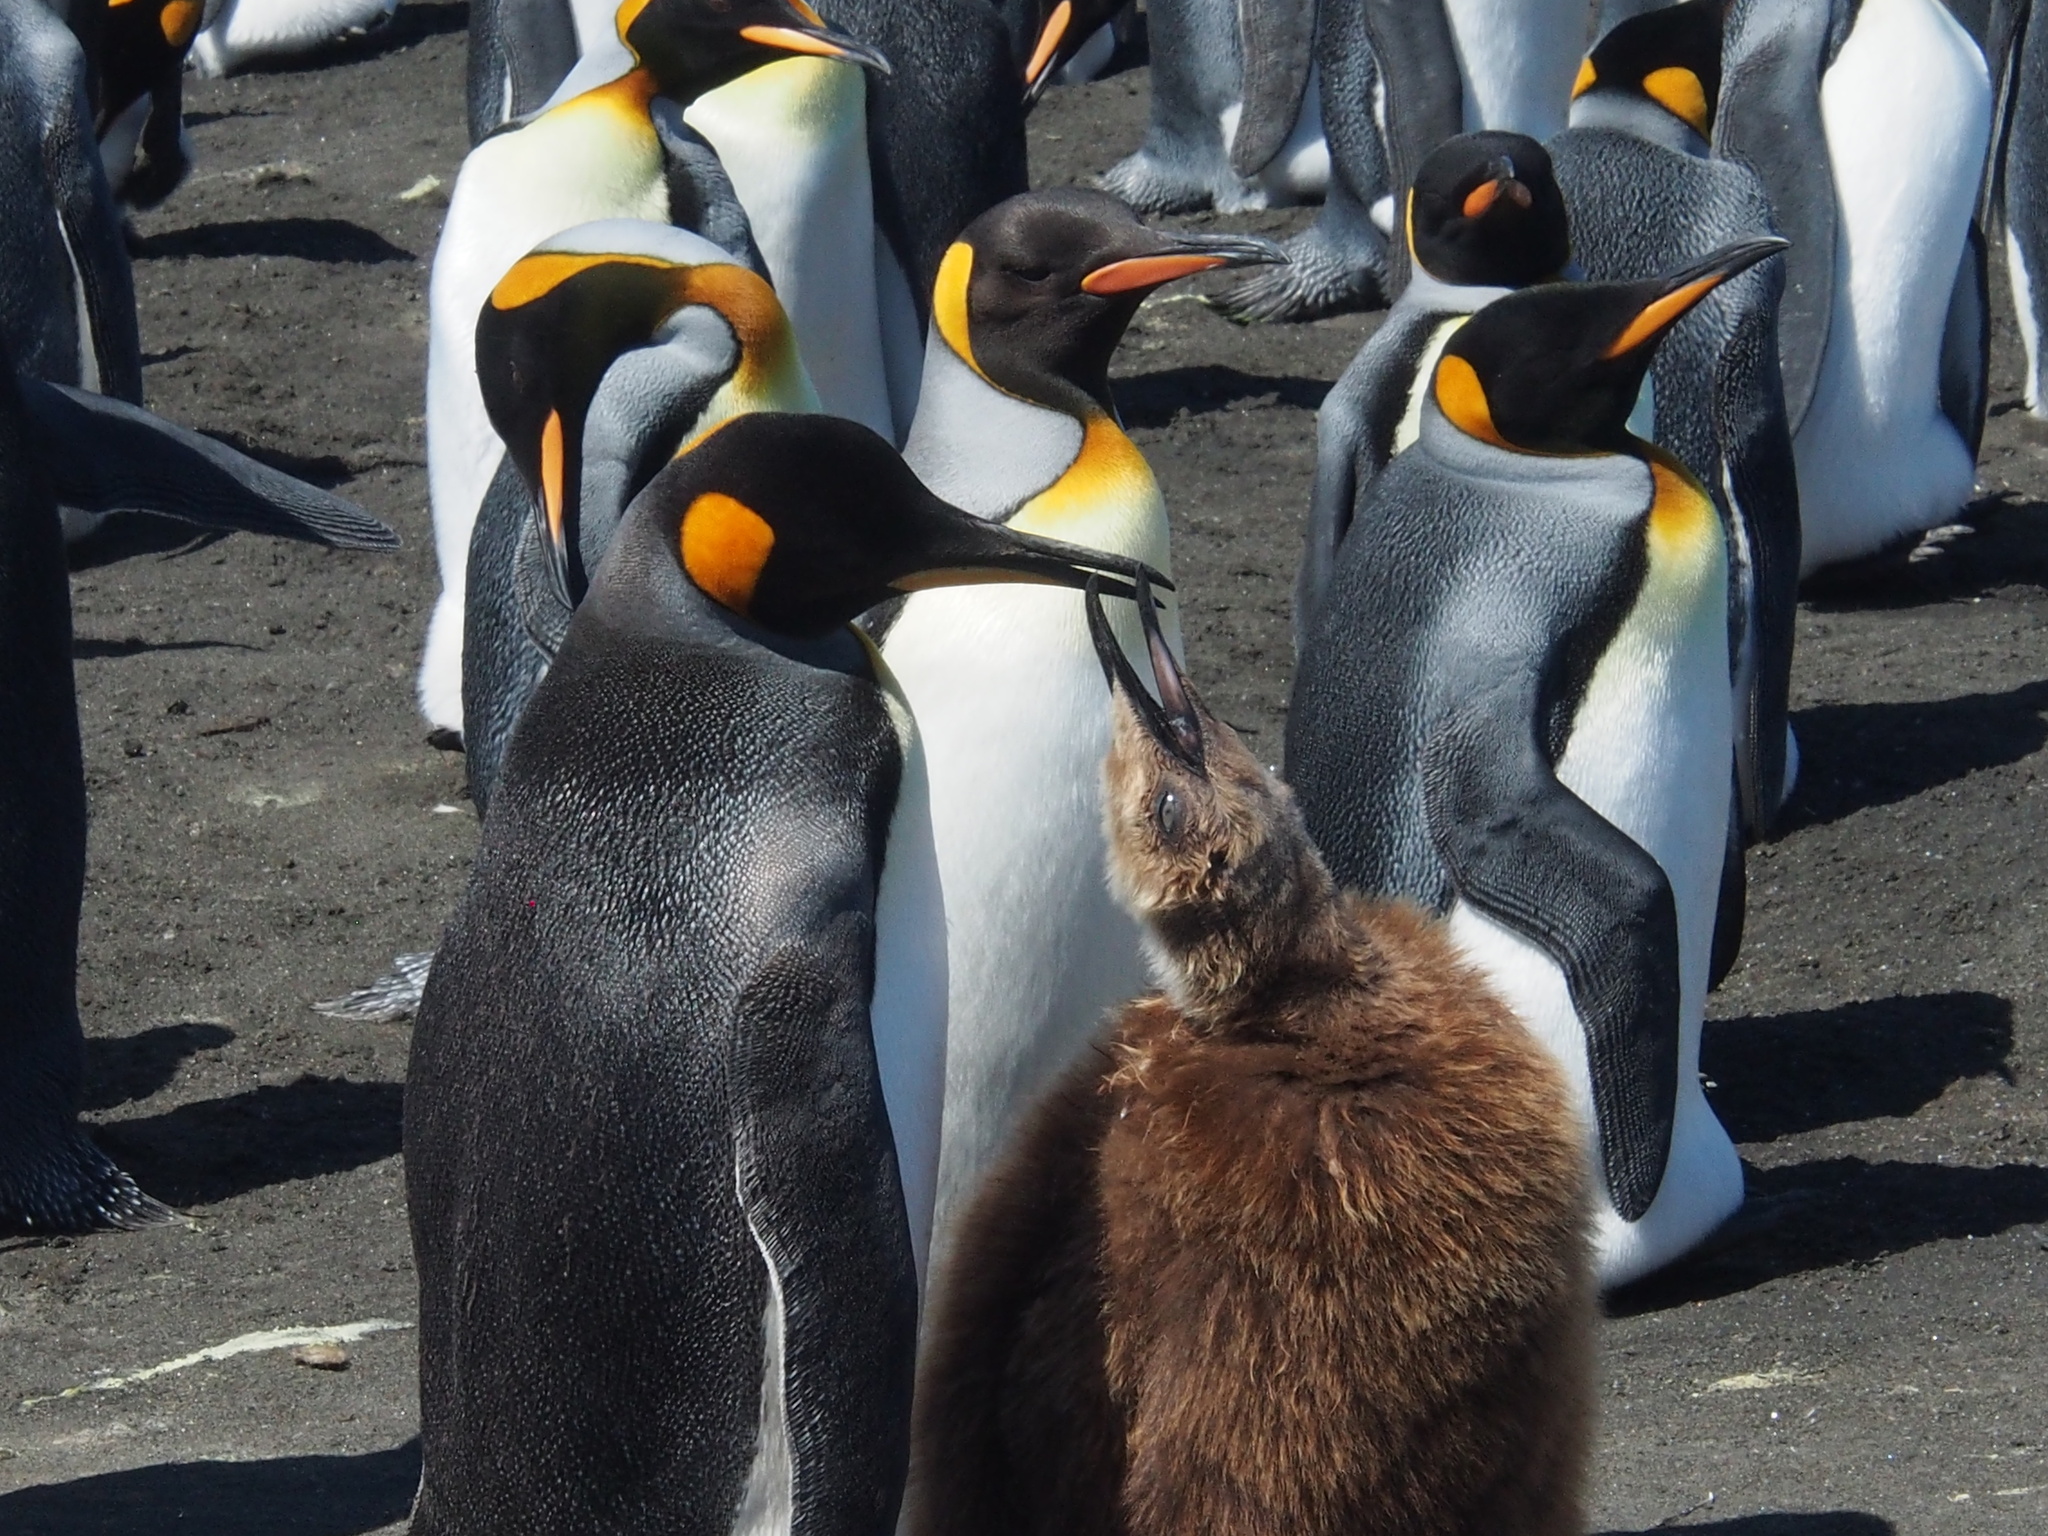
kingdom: Animalia
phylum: Chordata
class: Aves
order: Sphenisciformes
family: Spheniscidae
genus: Aptenodytes
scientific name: Aptenodytes patagonicus
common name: King penguin
